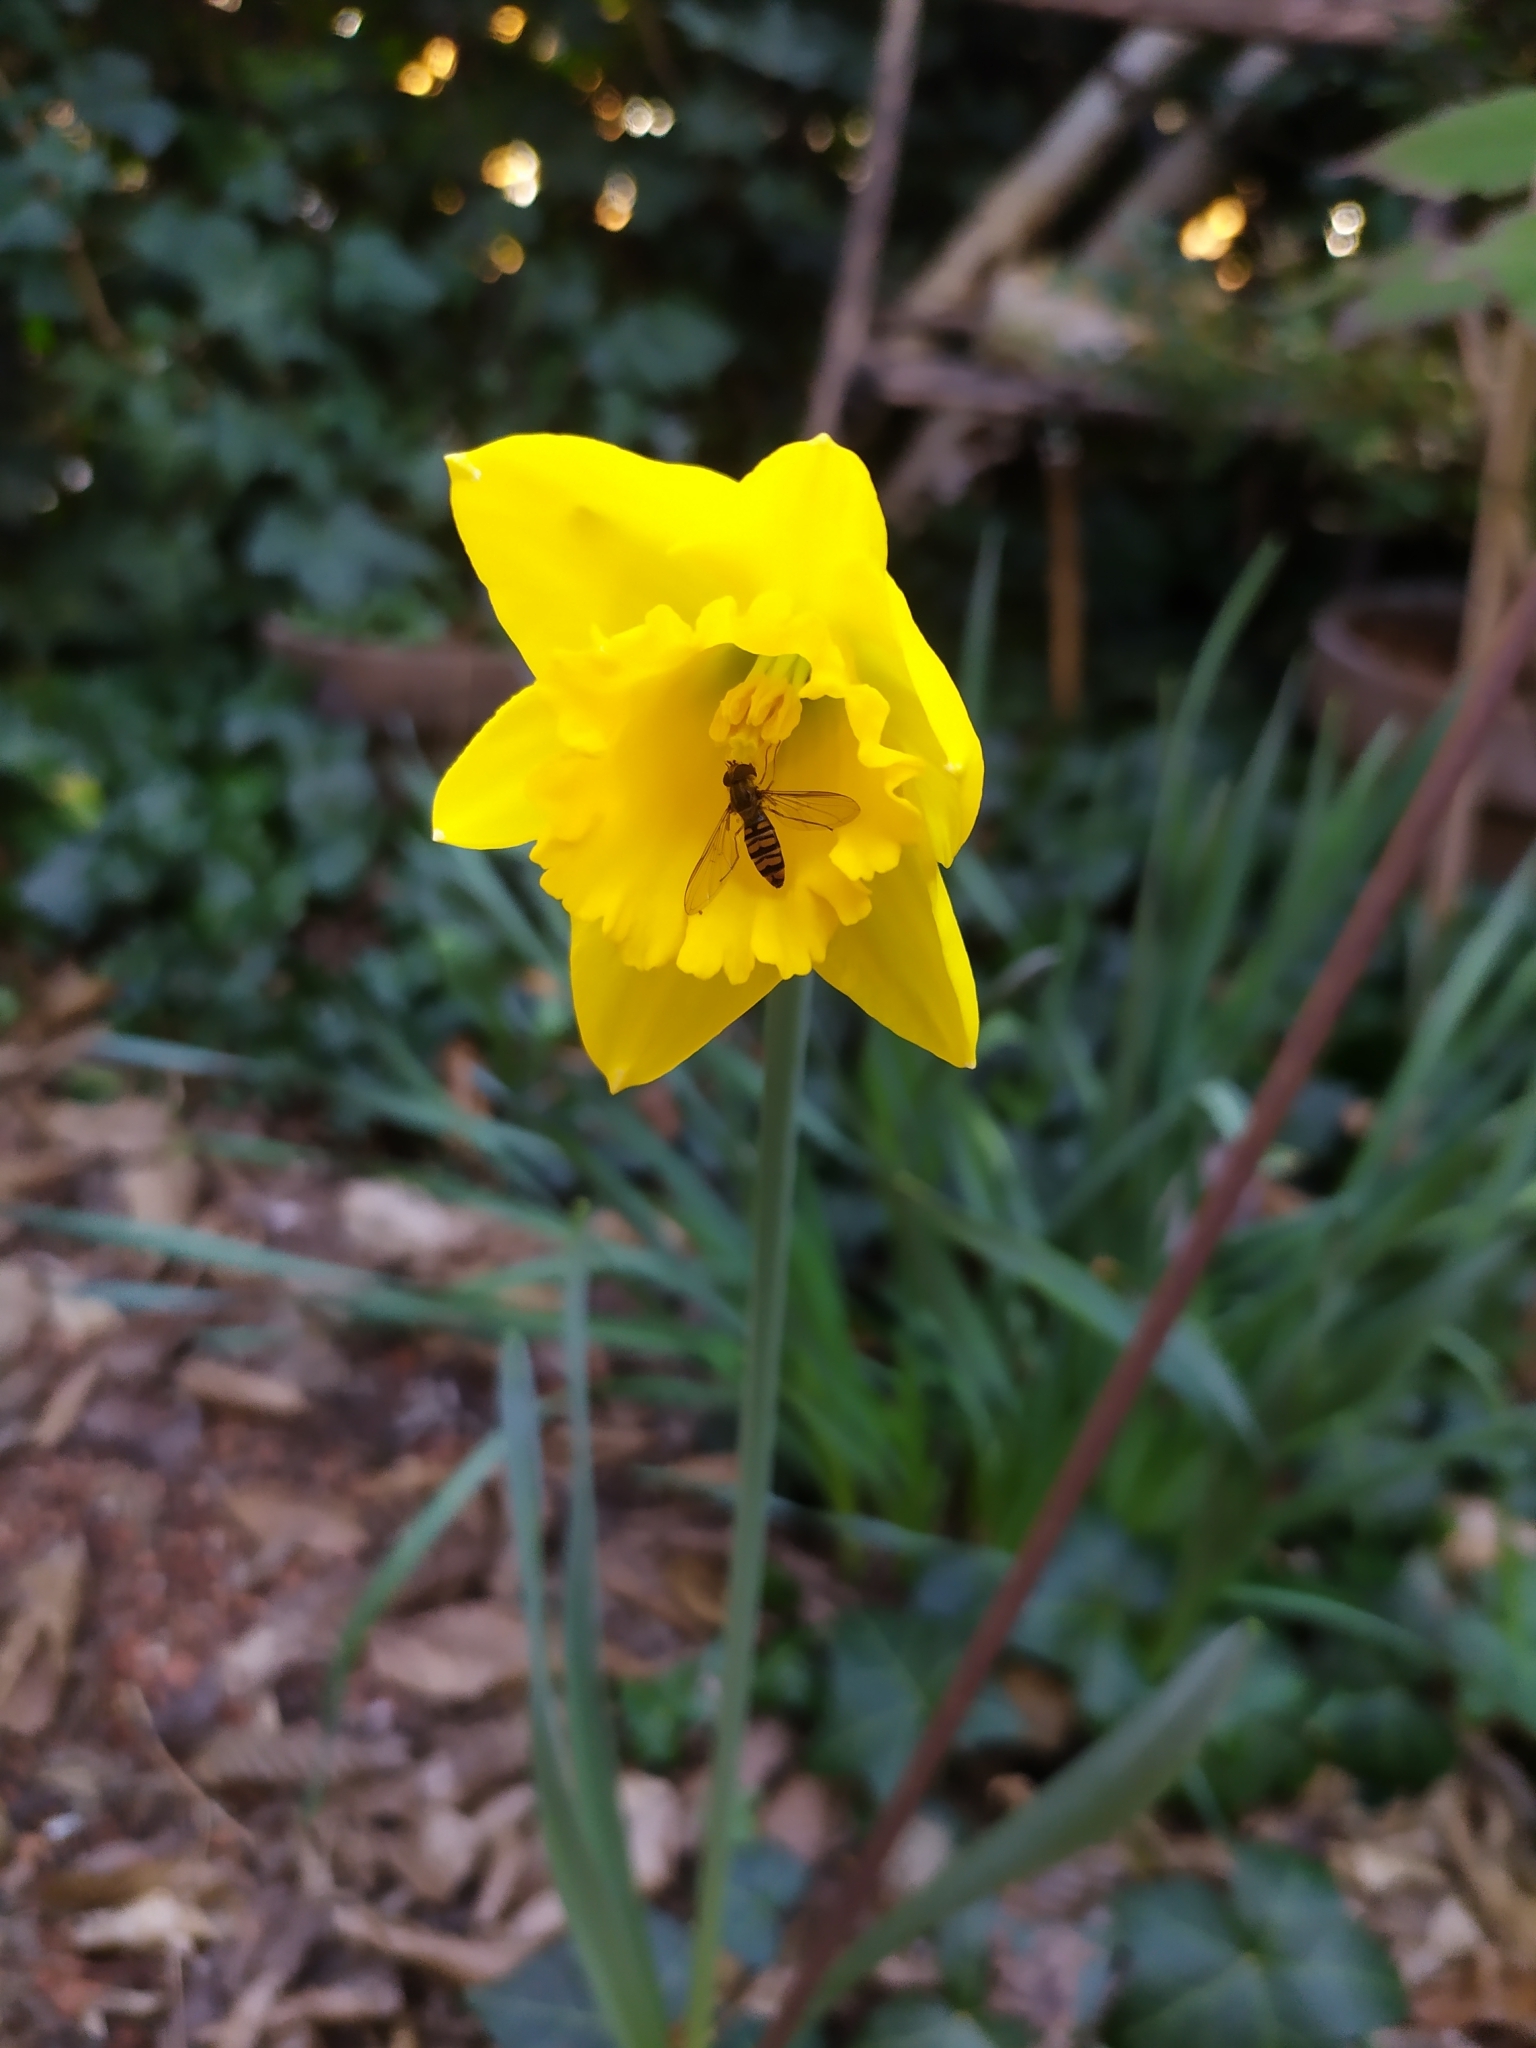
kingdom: Animalia
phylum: Arthropoda
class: Insecta
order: Diptera
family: Syrphidae
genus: Episyrphus
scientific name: Episyrphus balteatus
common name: Marmalade hoverfly
